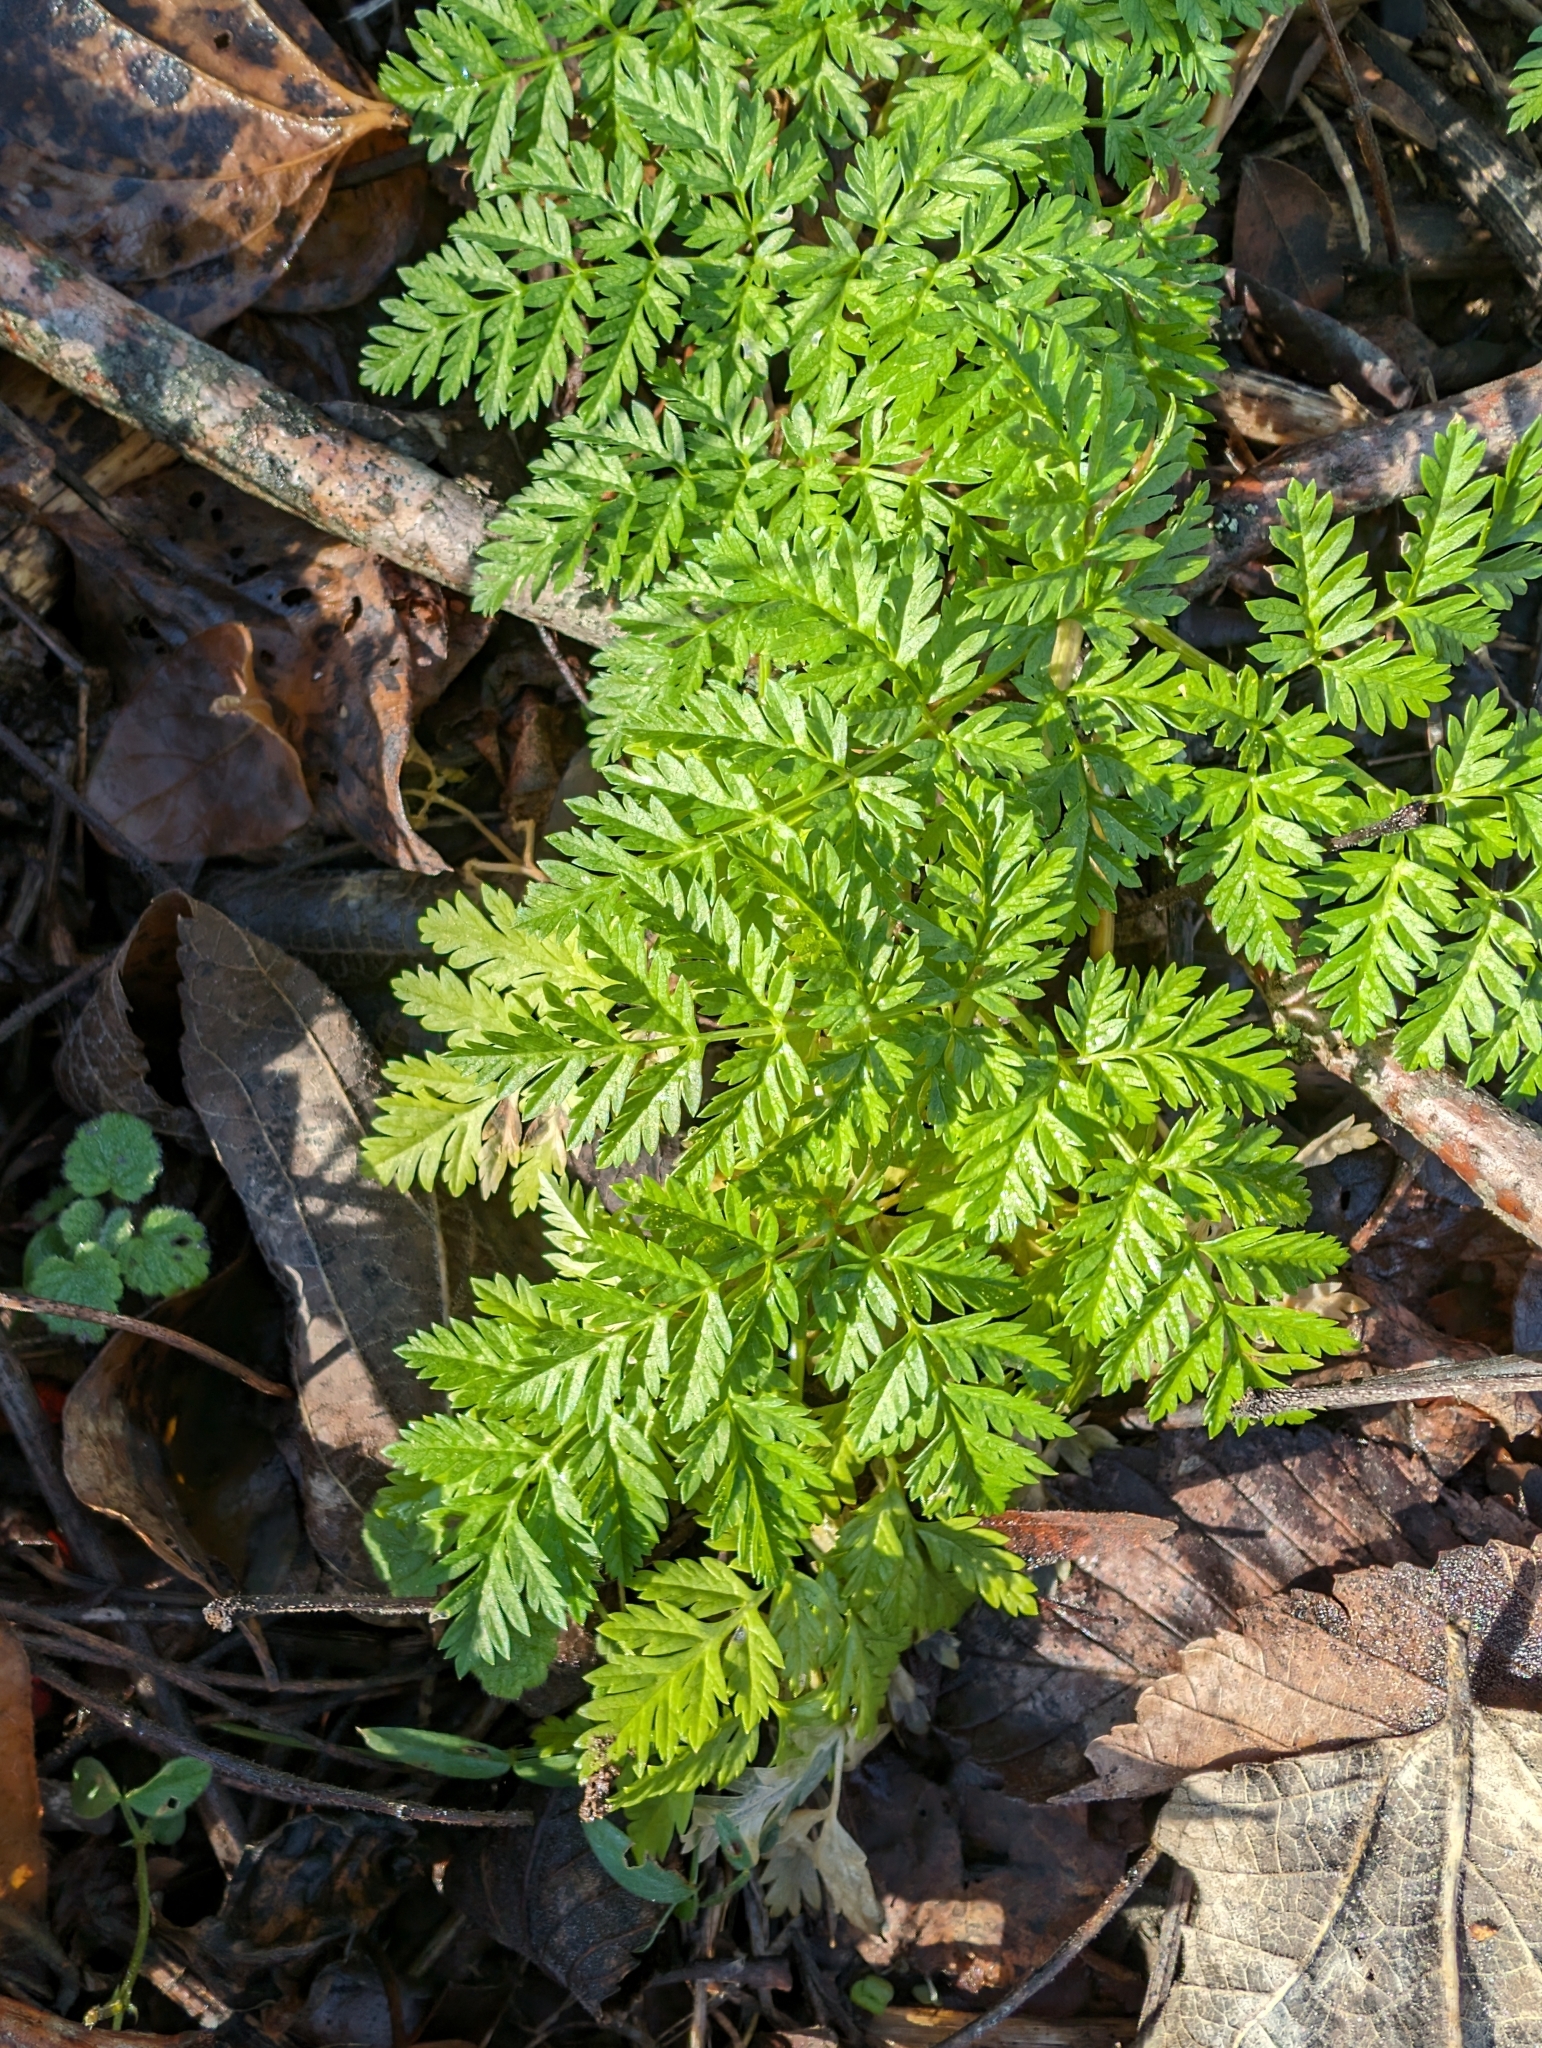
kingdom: Plantae
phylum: Tracheophyta
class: Magnoliopsida
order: Apiales
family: Apiaceae
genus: Conium
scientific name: Conium maculatum
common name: Hemlock
